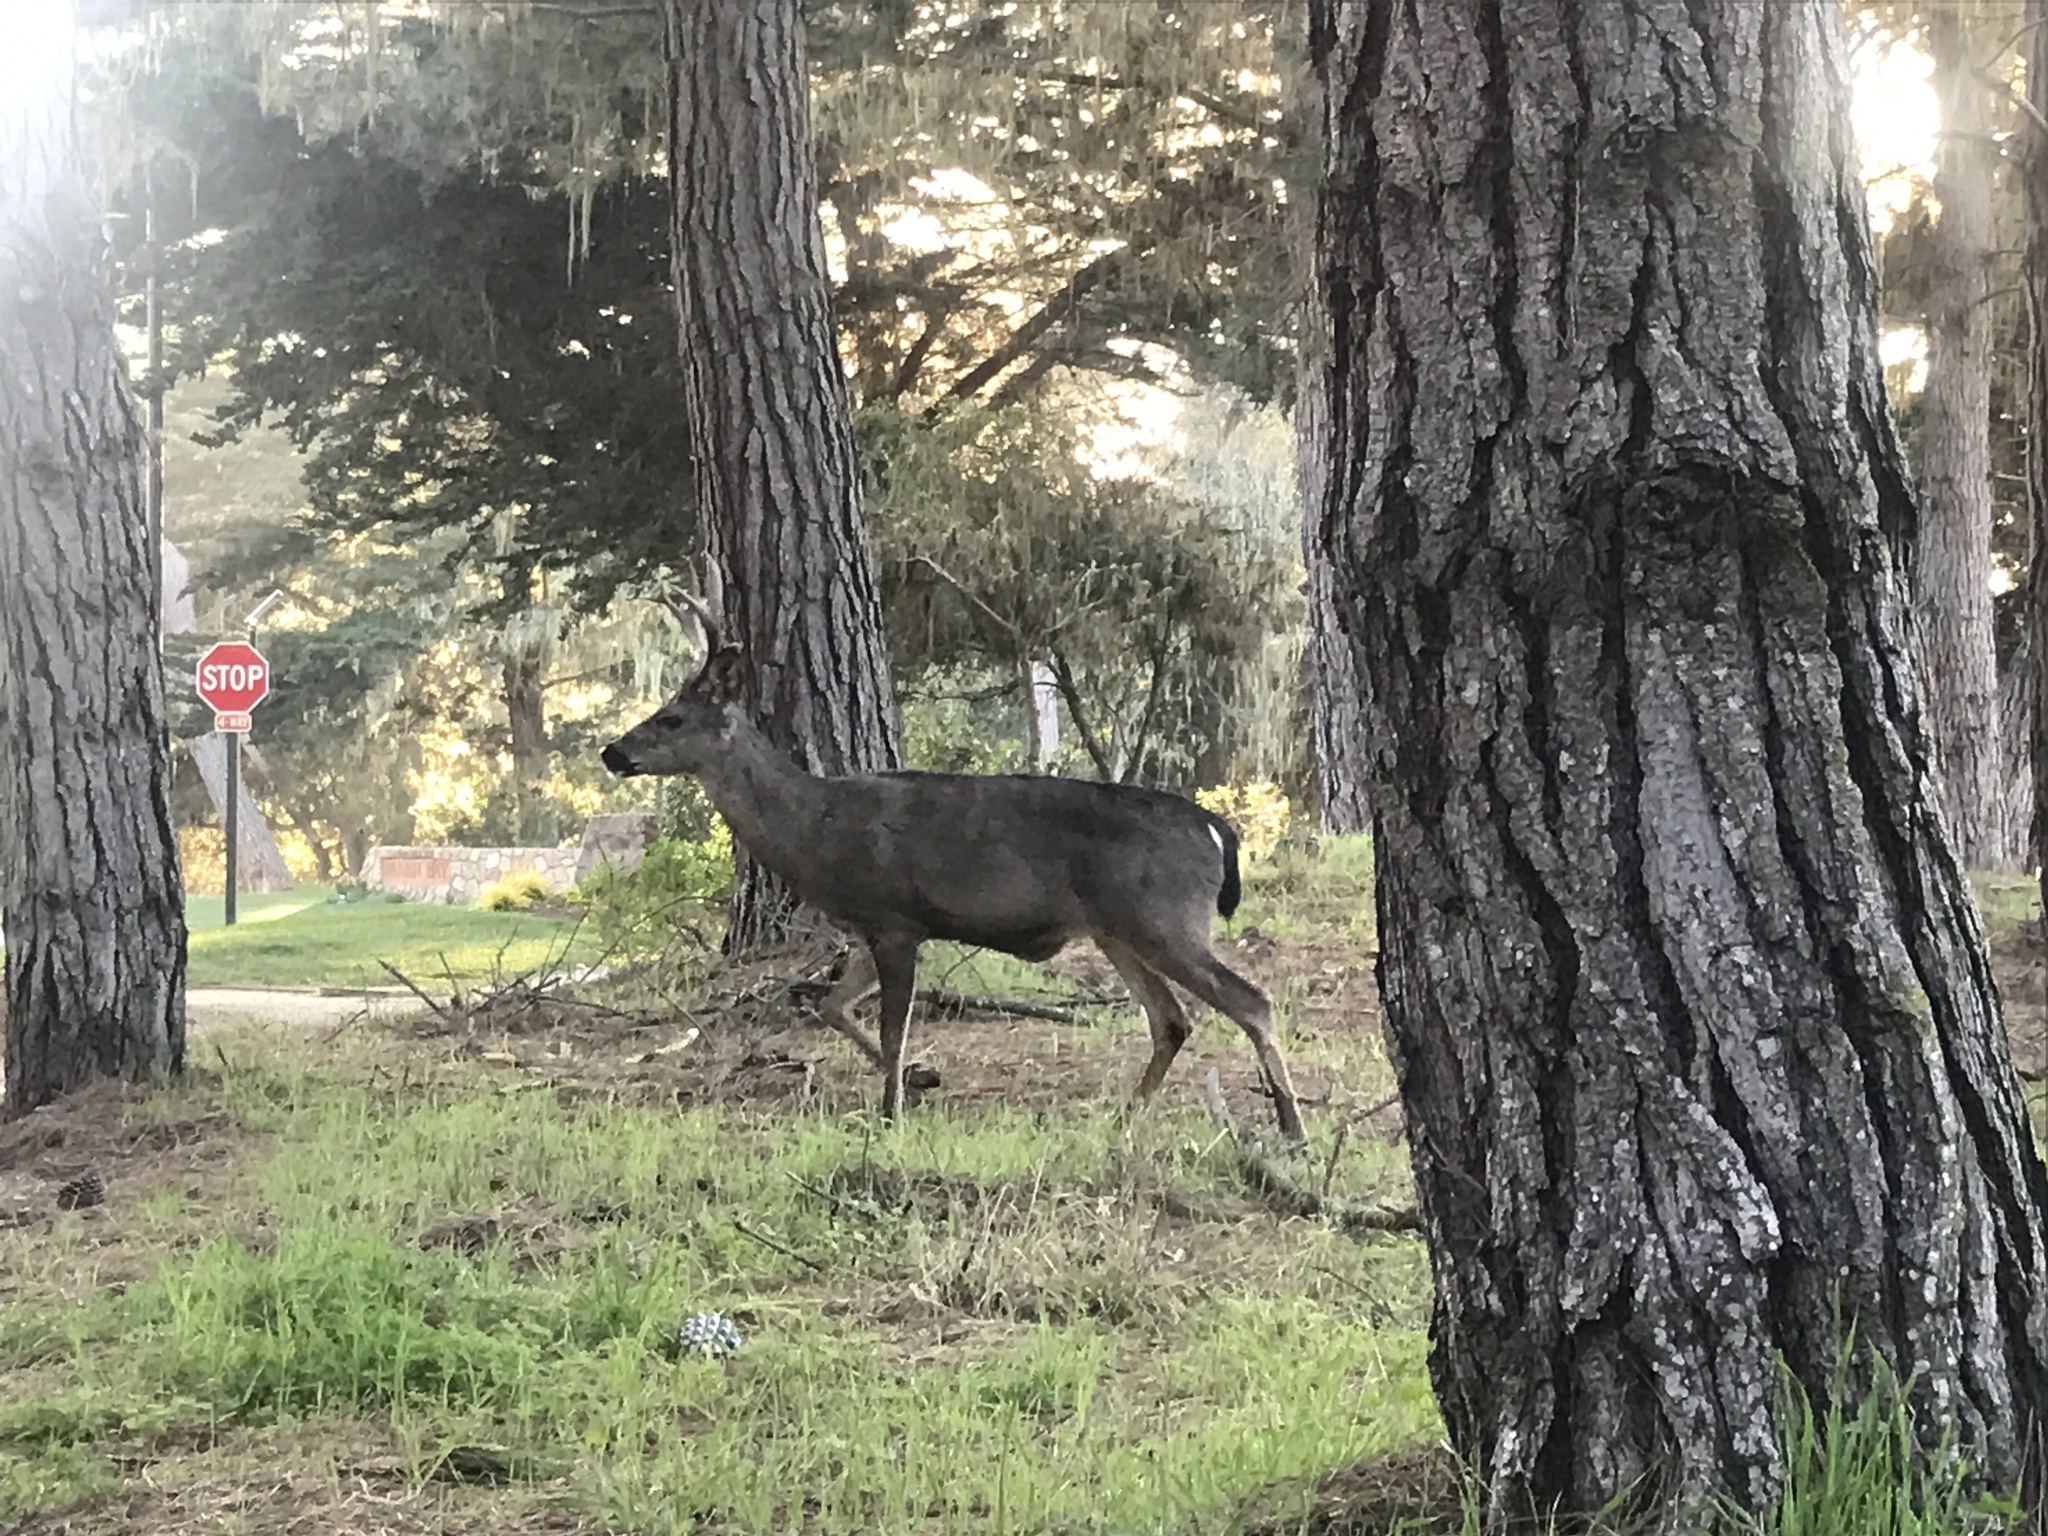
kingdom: Animalia
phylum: Chordata
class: Mammalia
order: Artiodactyla
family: Cervidae
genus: Odocoileus
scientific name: Odocoileus hemionus
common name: Mule deer
